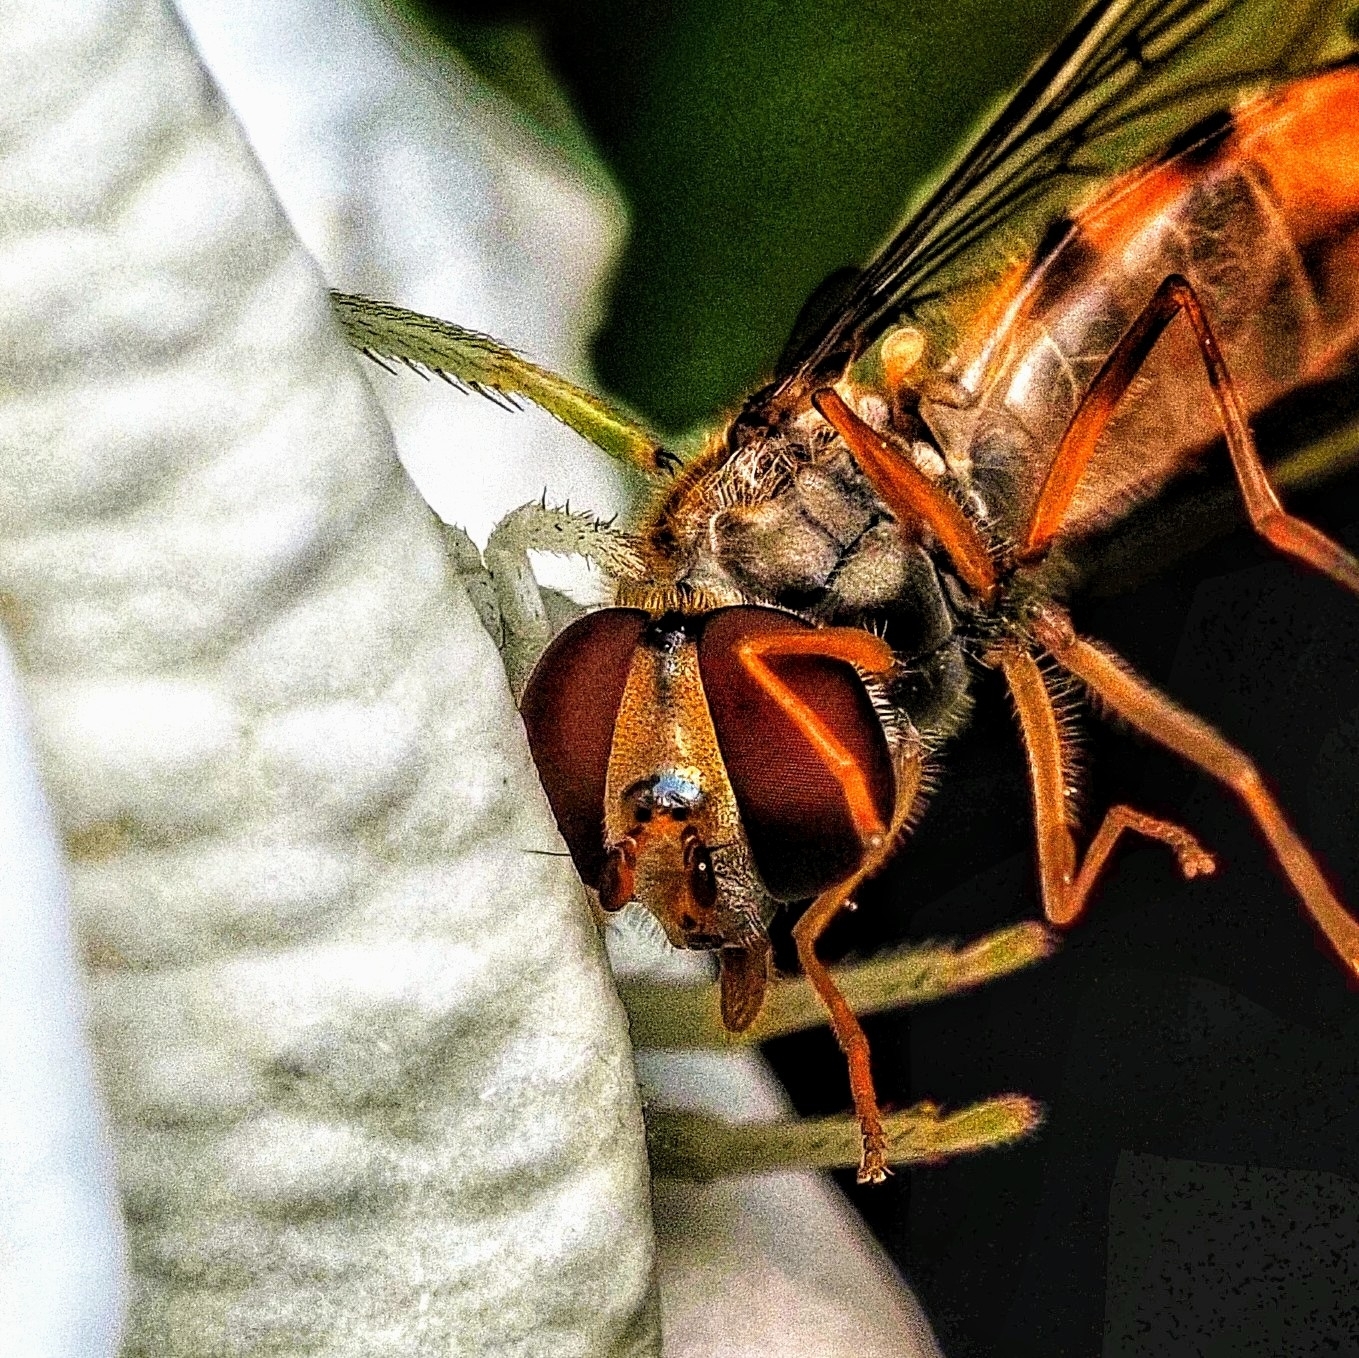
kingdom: Animalia
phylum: Arthropoda
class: Arachnida
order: Araneae
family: Thomisidae
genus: Misumena
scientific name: Misumena vatia
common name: Goldenrod crab spider
